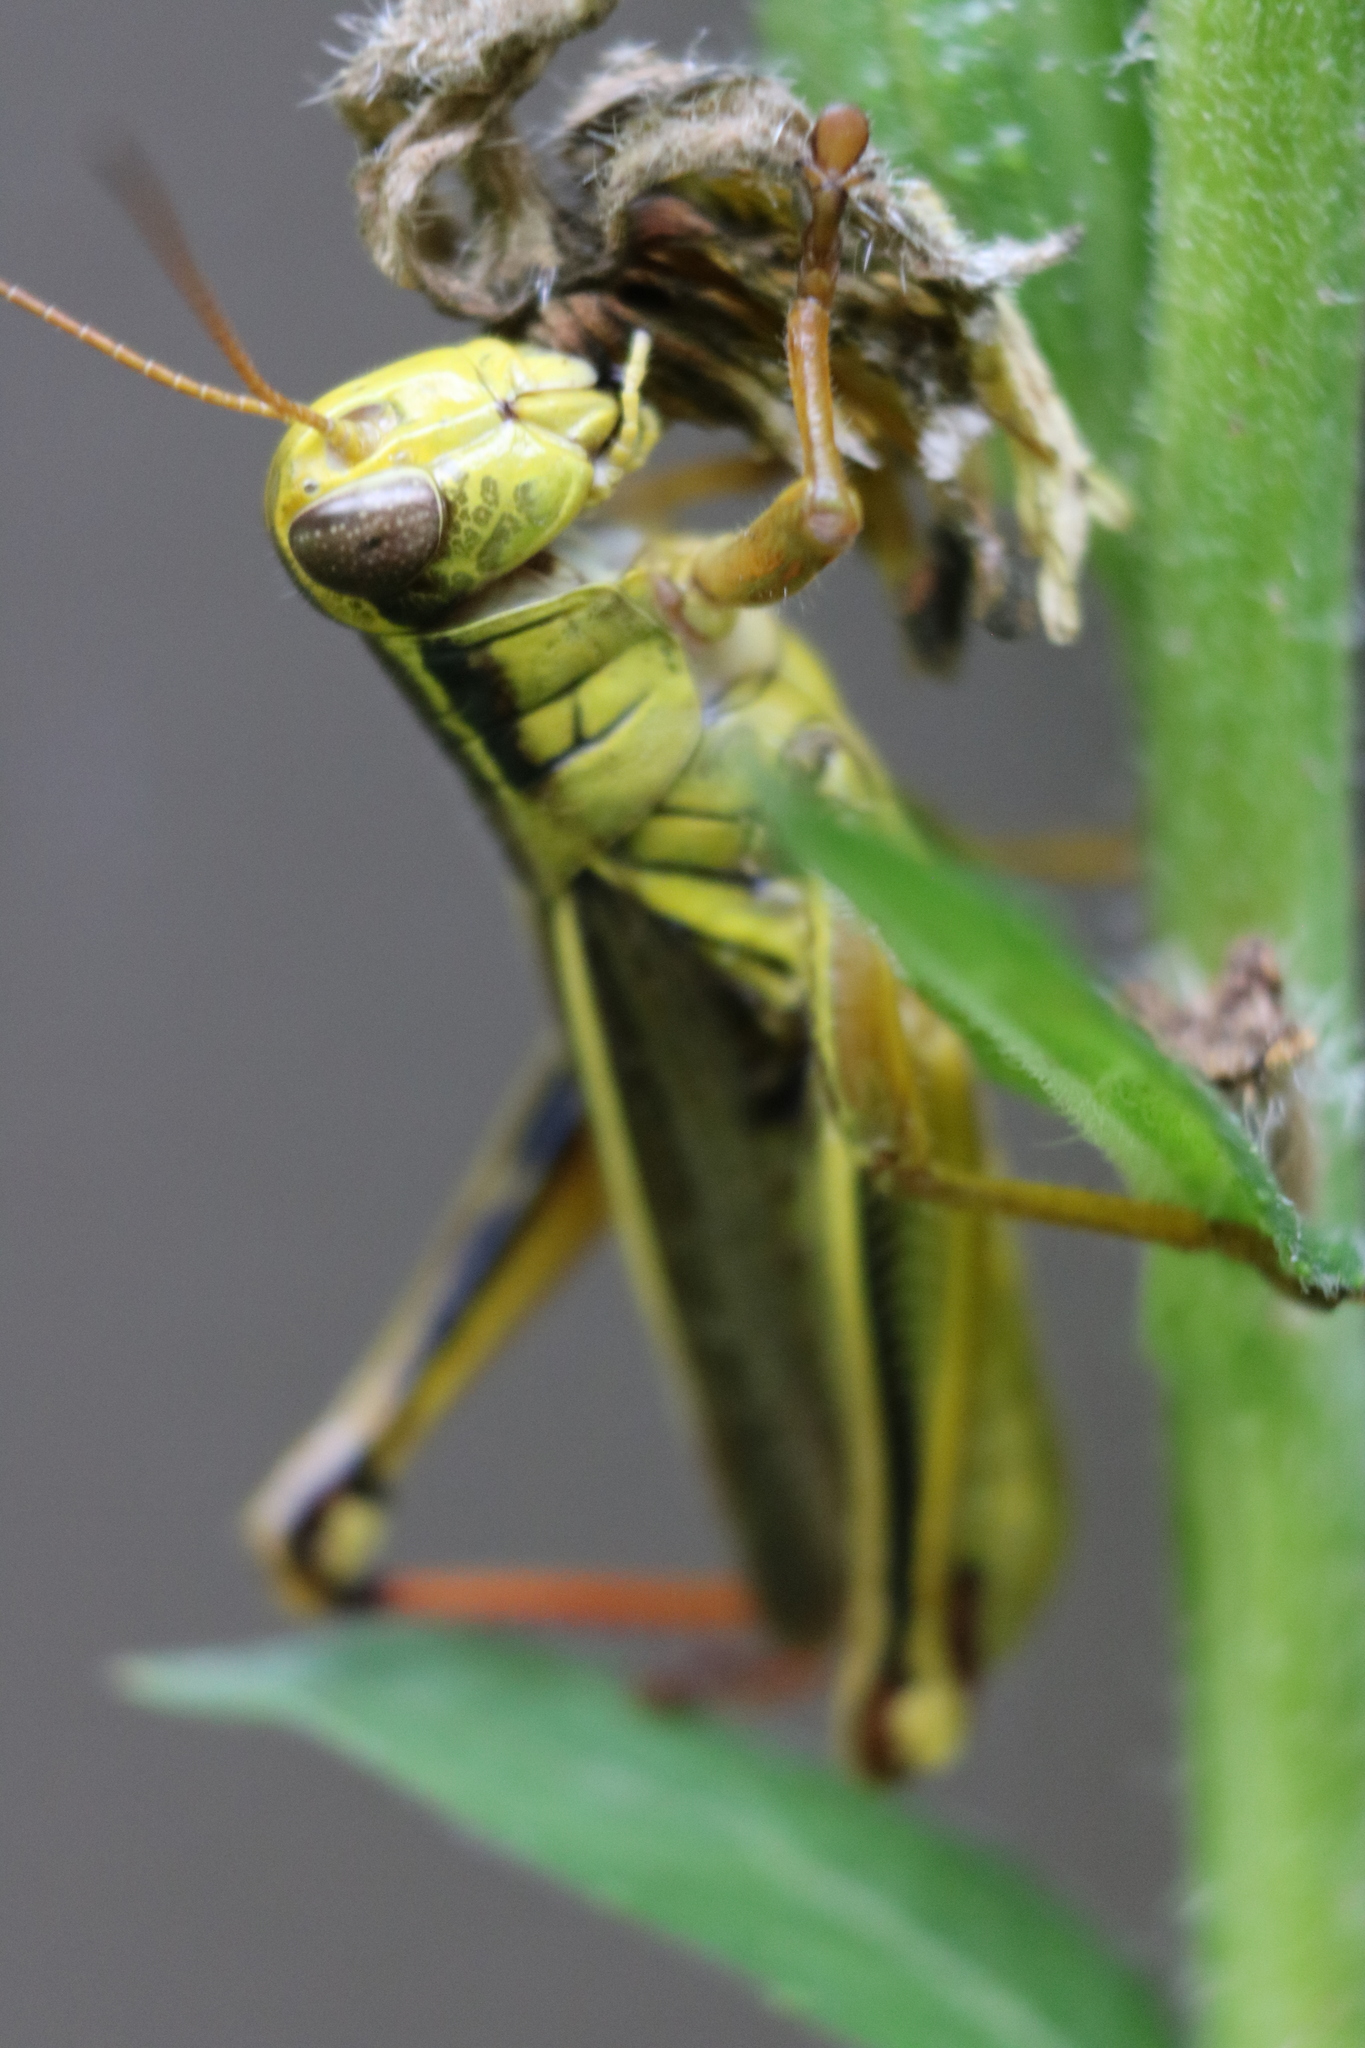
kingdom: Animalia
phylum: Arthropoda
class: Insecta
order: Orthoptera
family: Acrididae
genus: Melanoplus
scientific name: Melanoplus bivittatus
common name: Two-striped grasshopper
